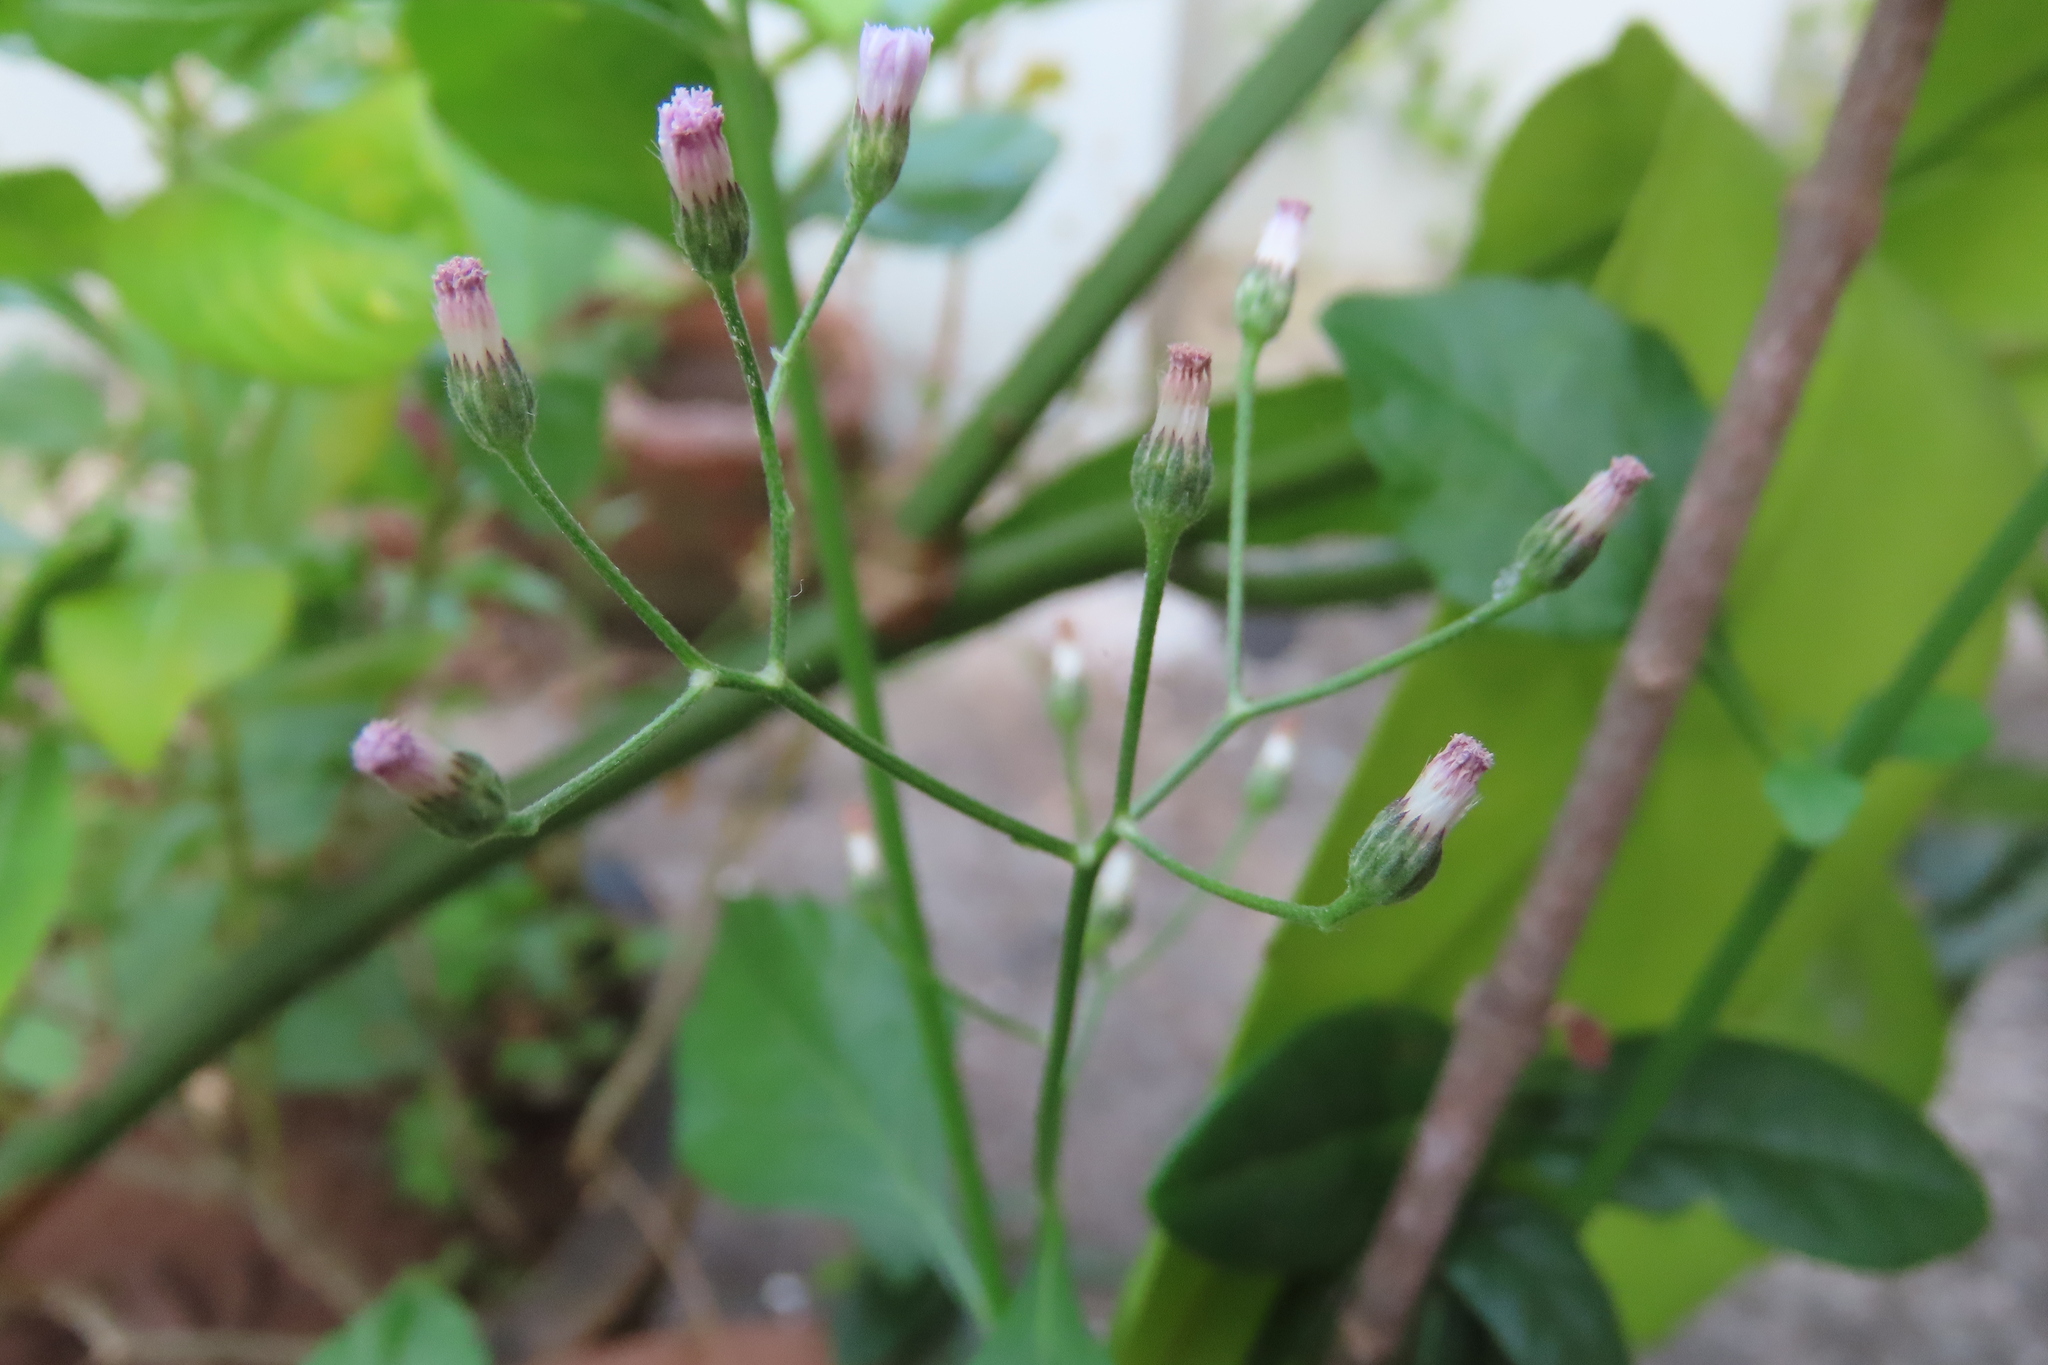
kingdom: Plantae
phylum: Tracheophyta
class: Magnoliopsida
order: Asterales
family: Asteraceae
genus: Cyanthillium
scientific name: Cyanthillium cinereum
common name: Little ironweed
